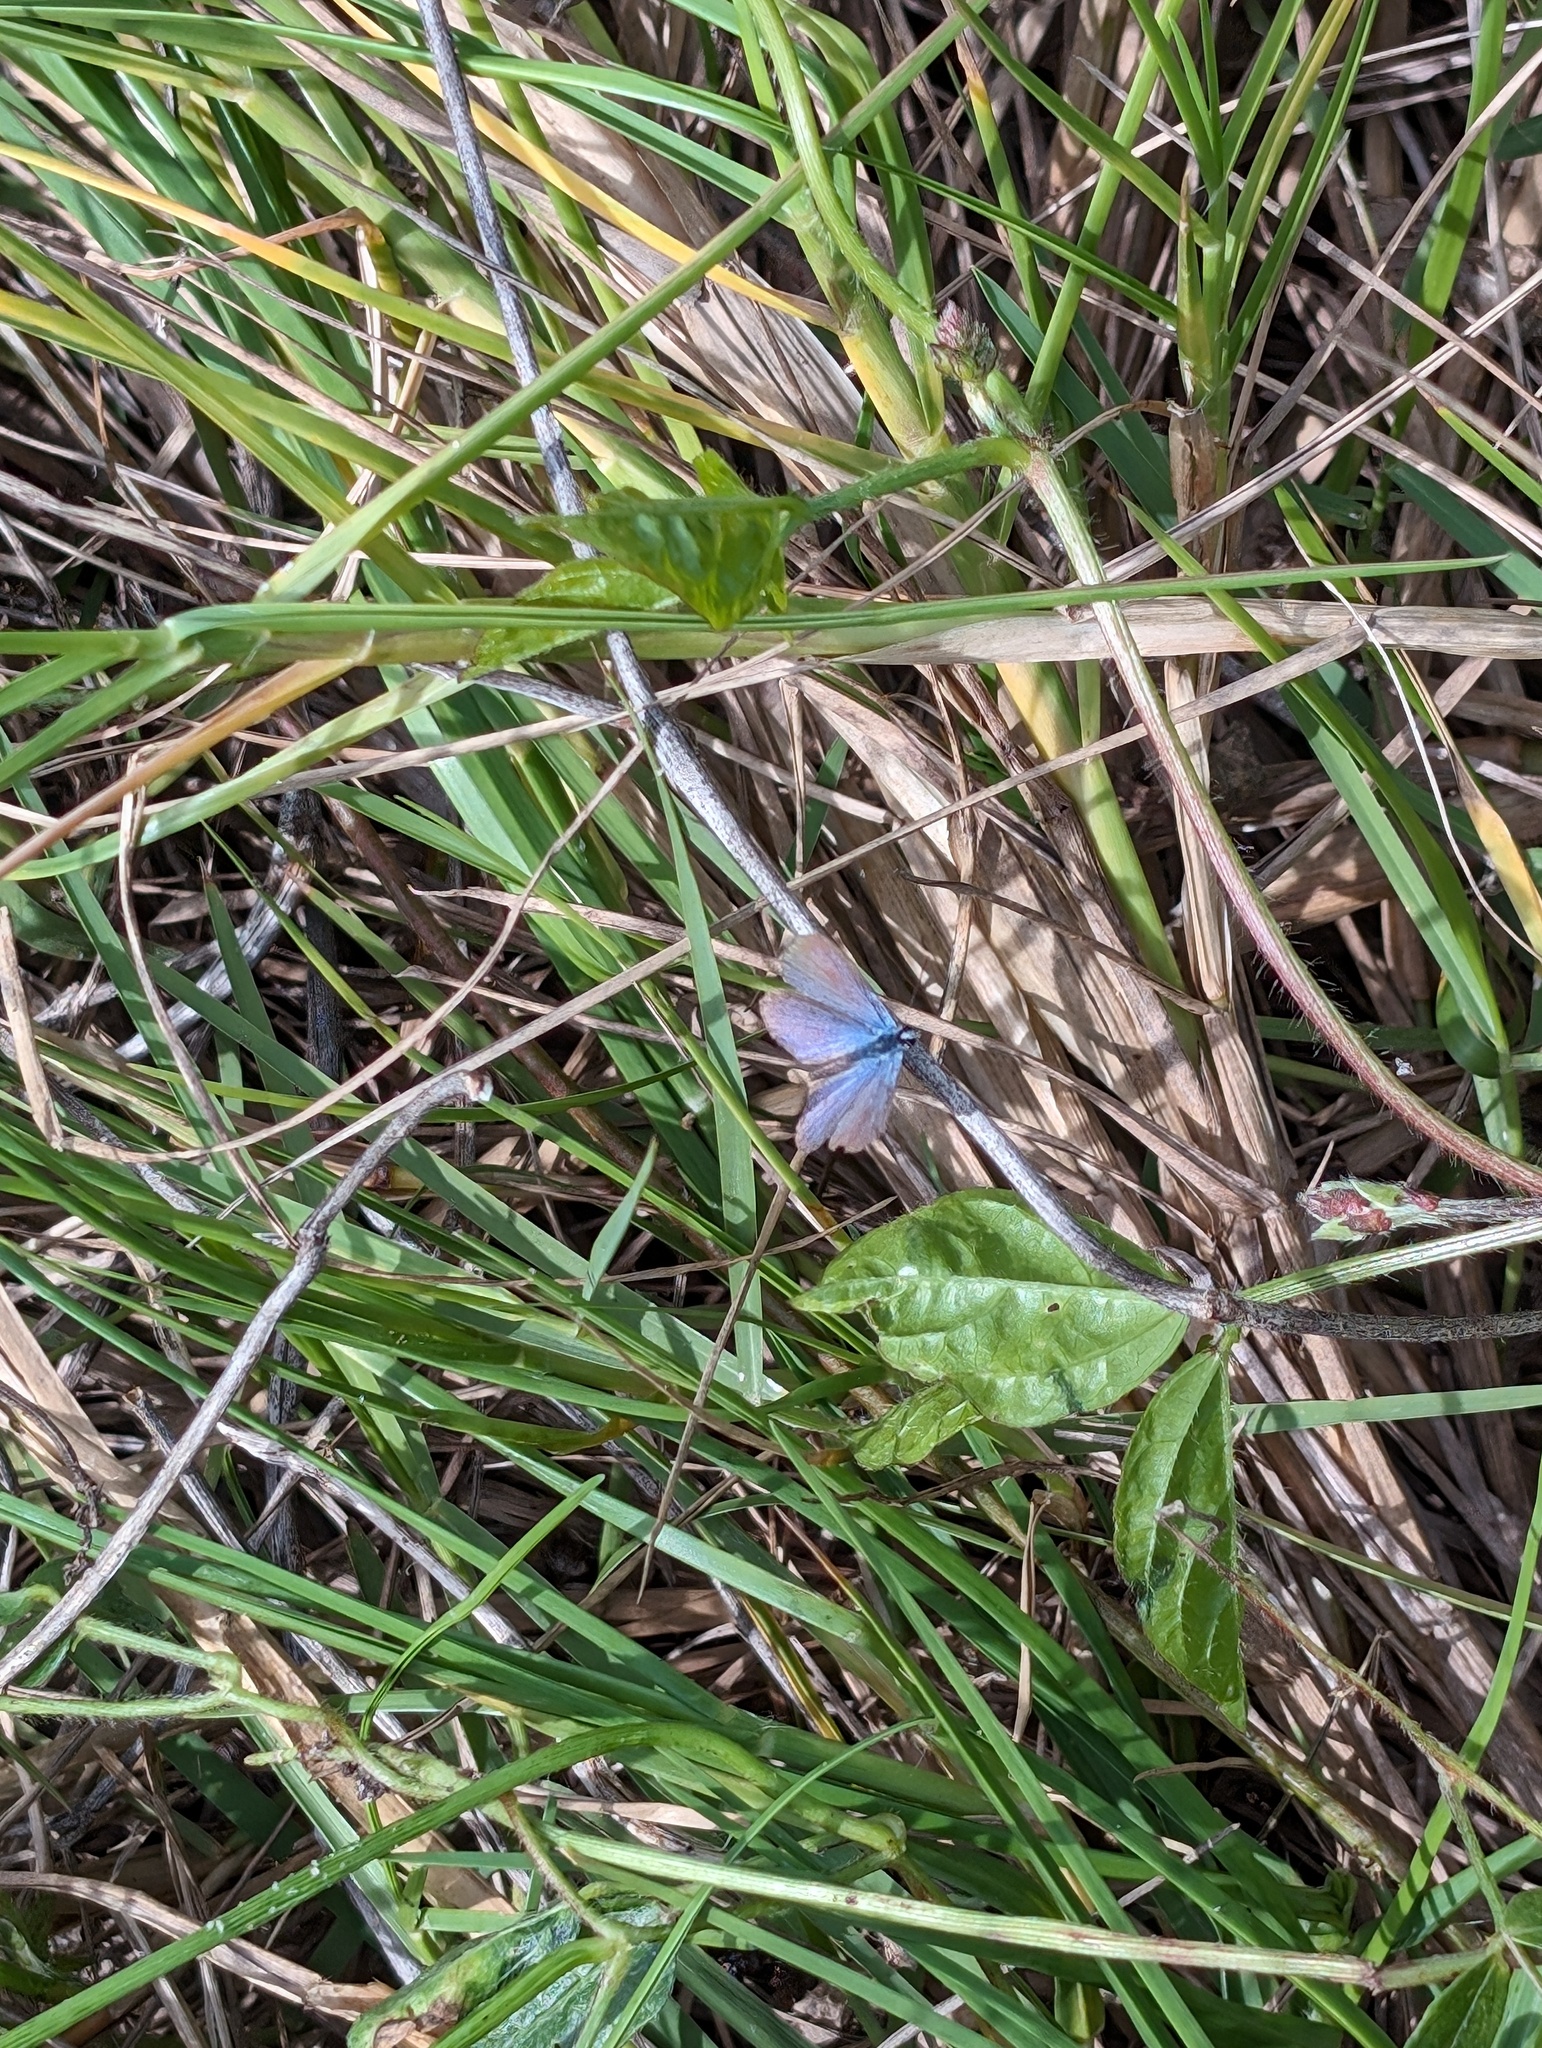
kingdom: Animalia
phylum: Arthropoda
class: Insecta
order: Lepidoptera
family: Lycaenidae
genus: Hemiargus
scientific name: Hemiargus ceraunus
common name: Ceraunus blue
